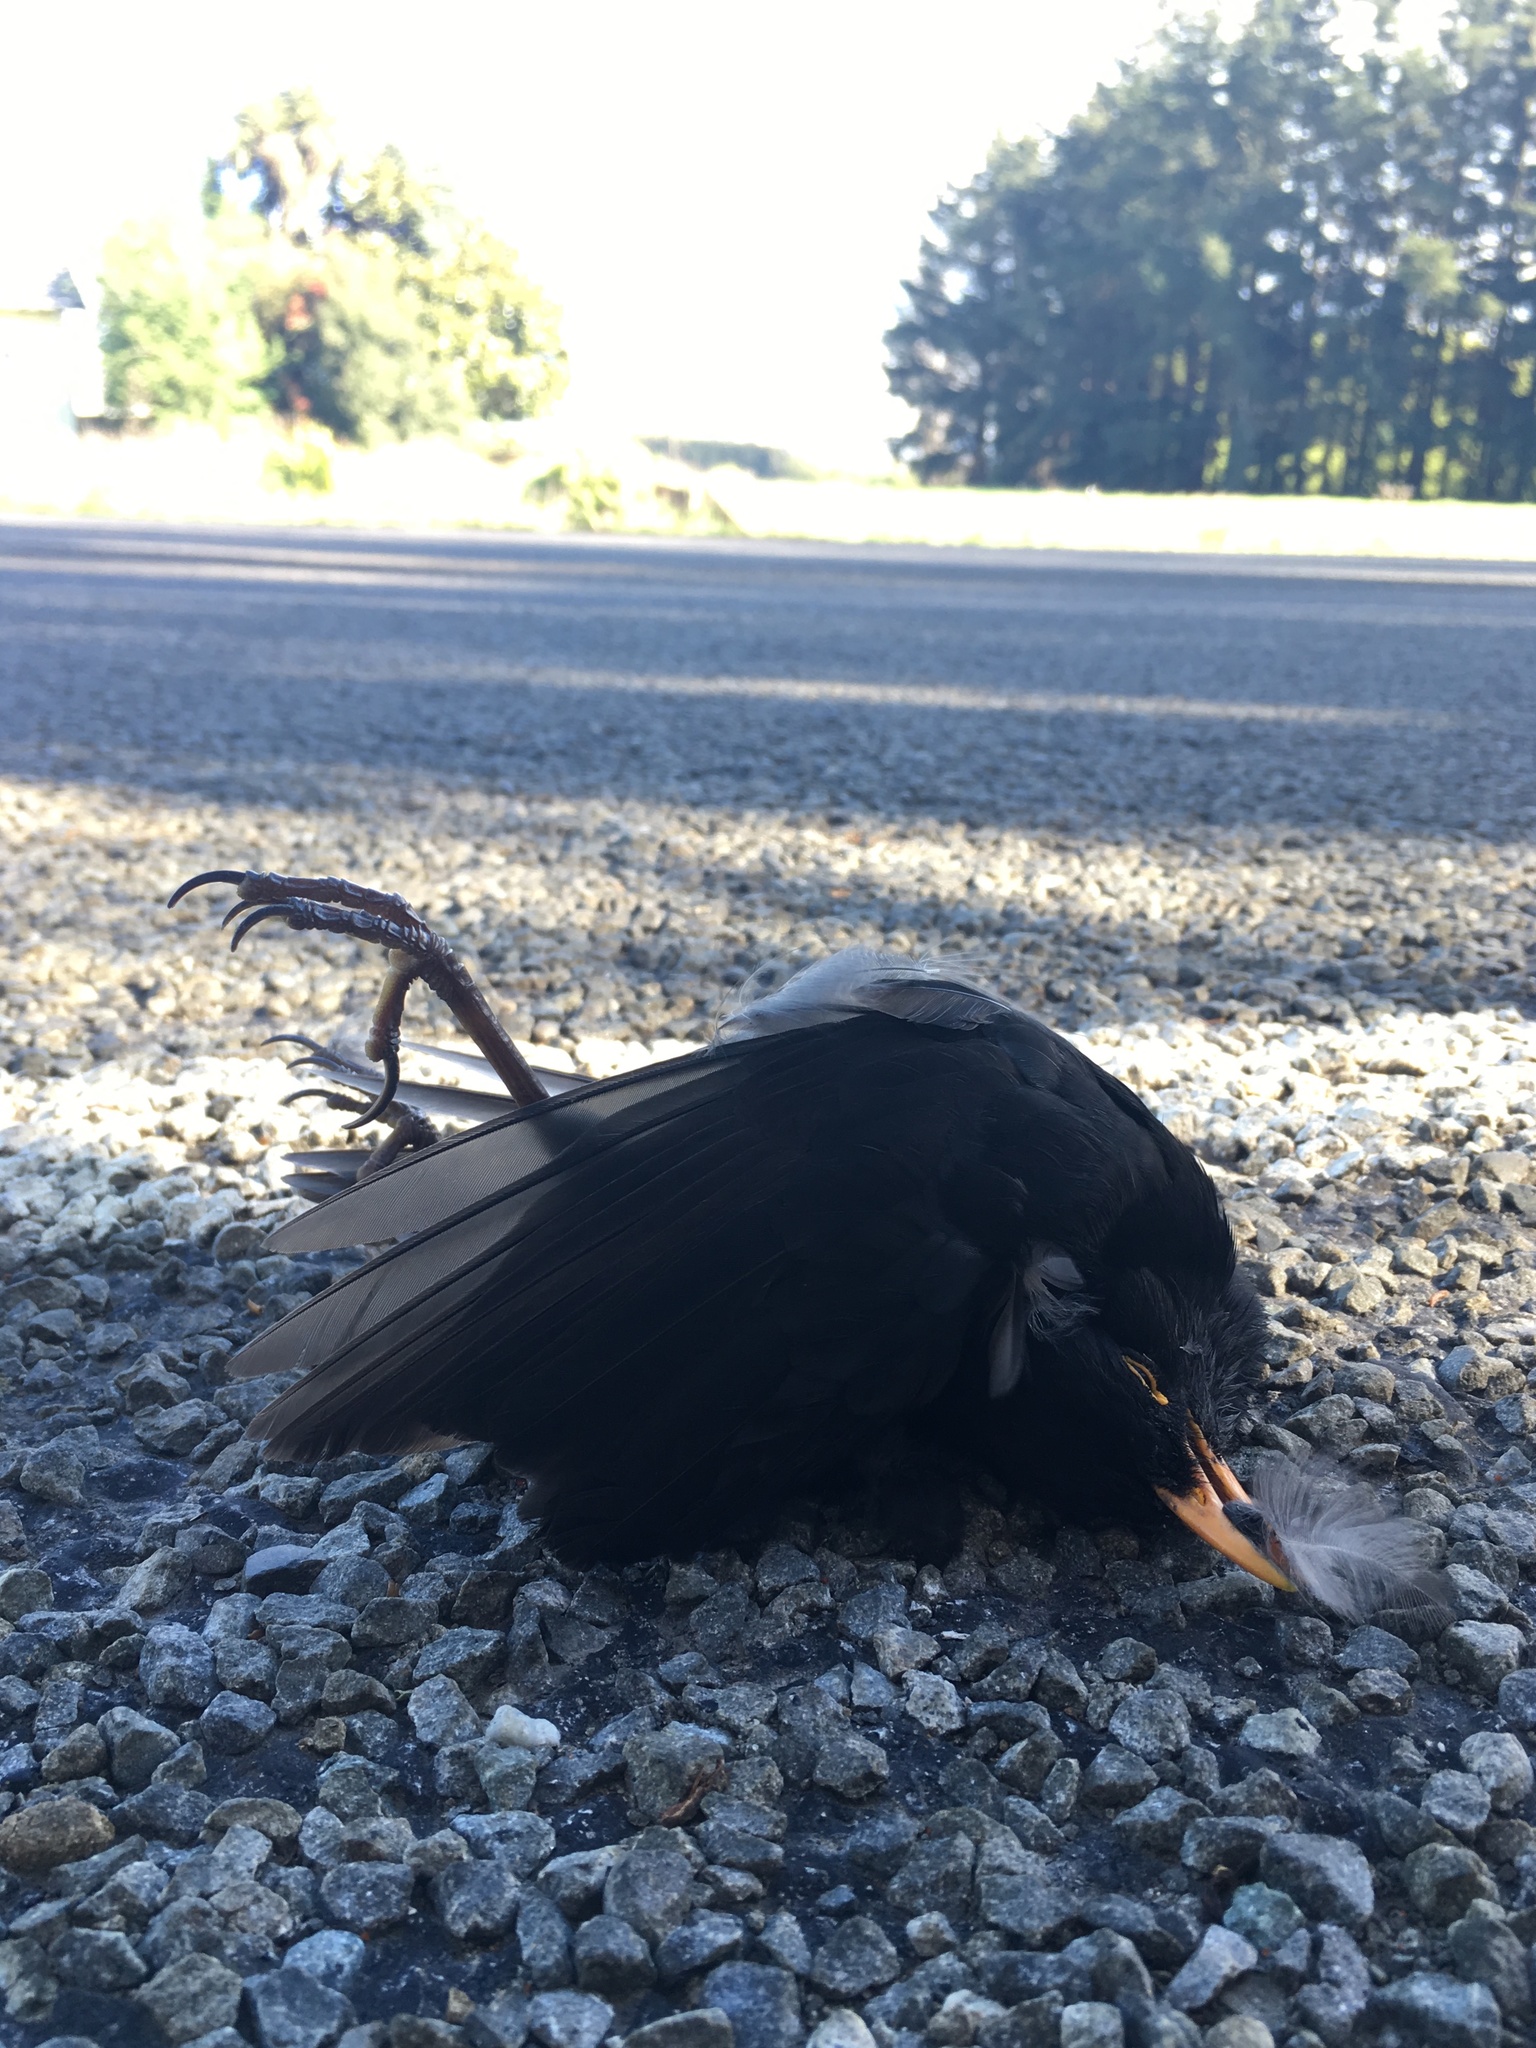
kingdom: Animalia
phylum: Chordata
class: Aves
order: Passeriformes
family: Turdidae
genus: Turdus
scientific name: Turdus merula
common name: Common blackbird
